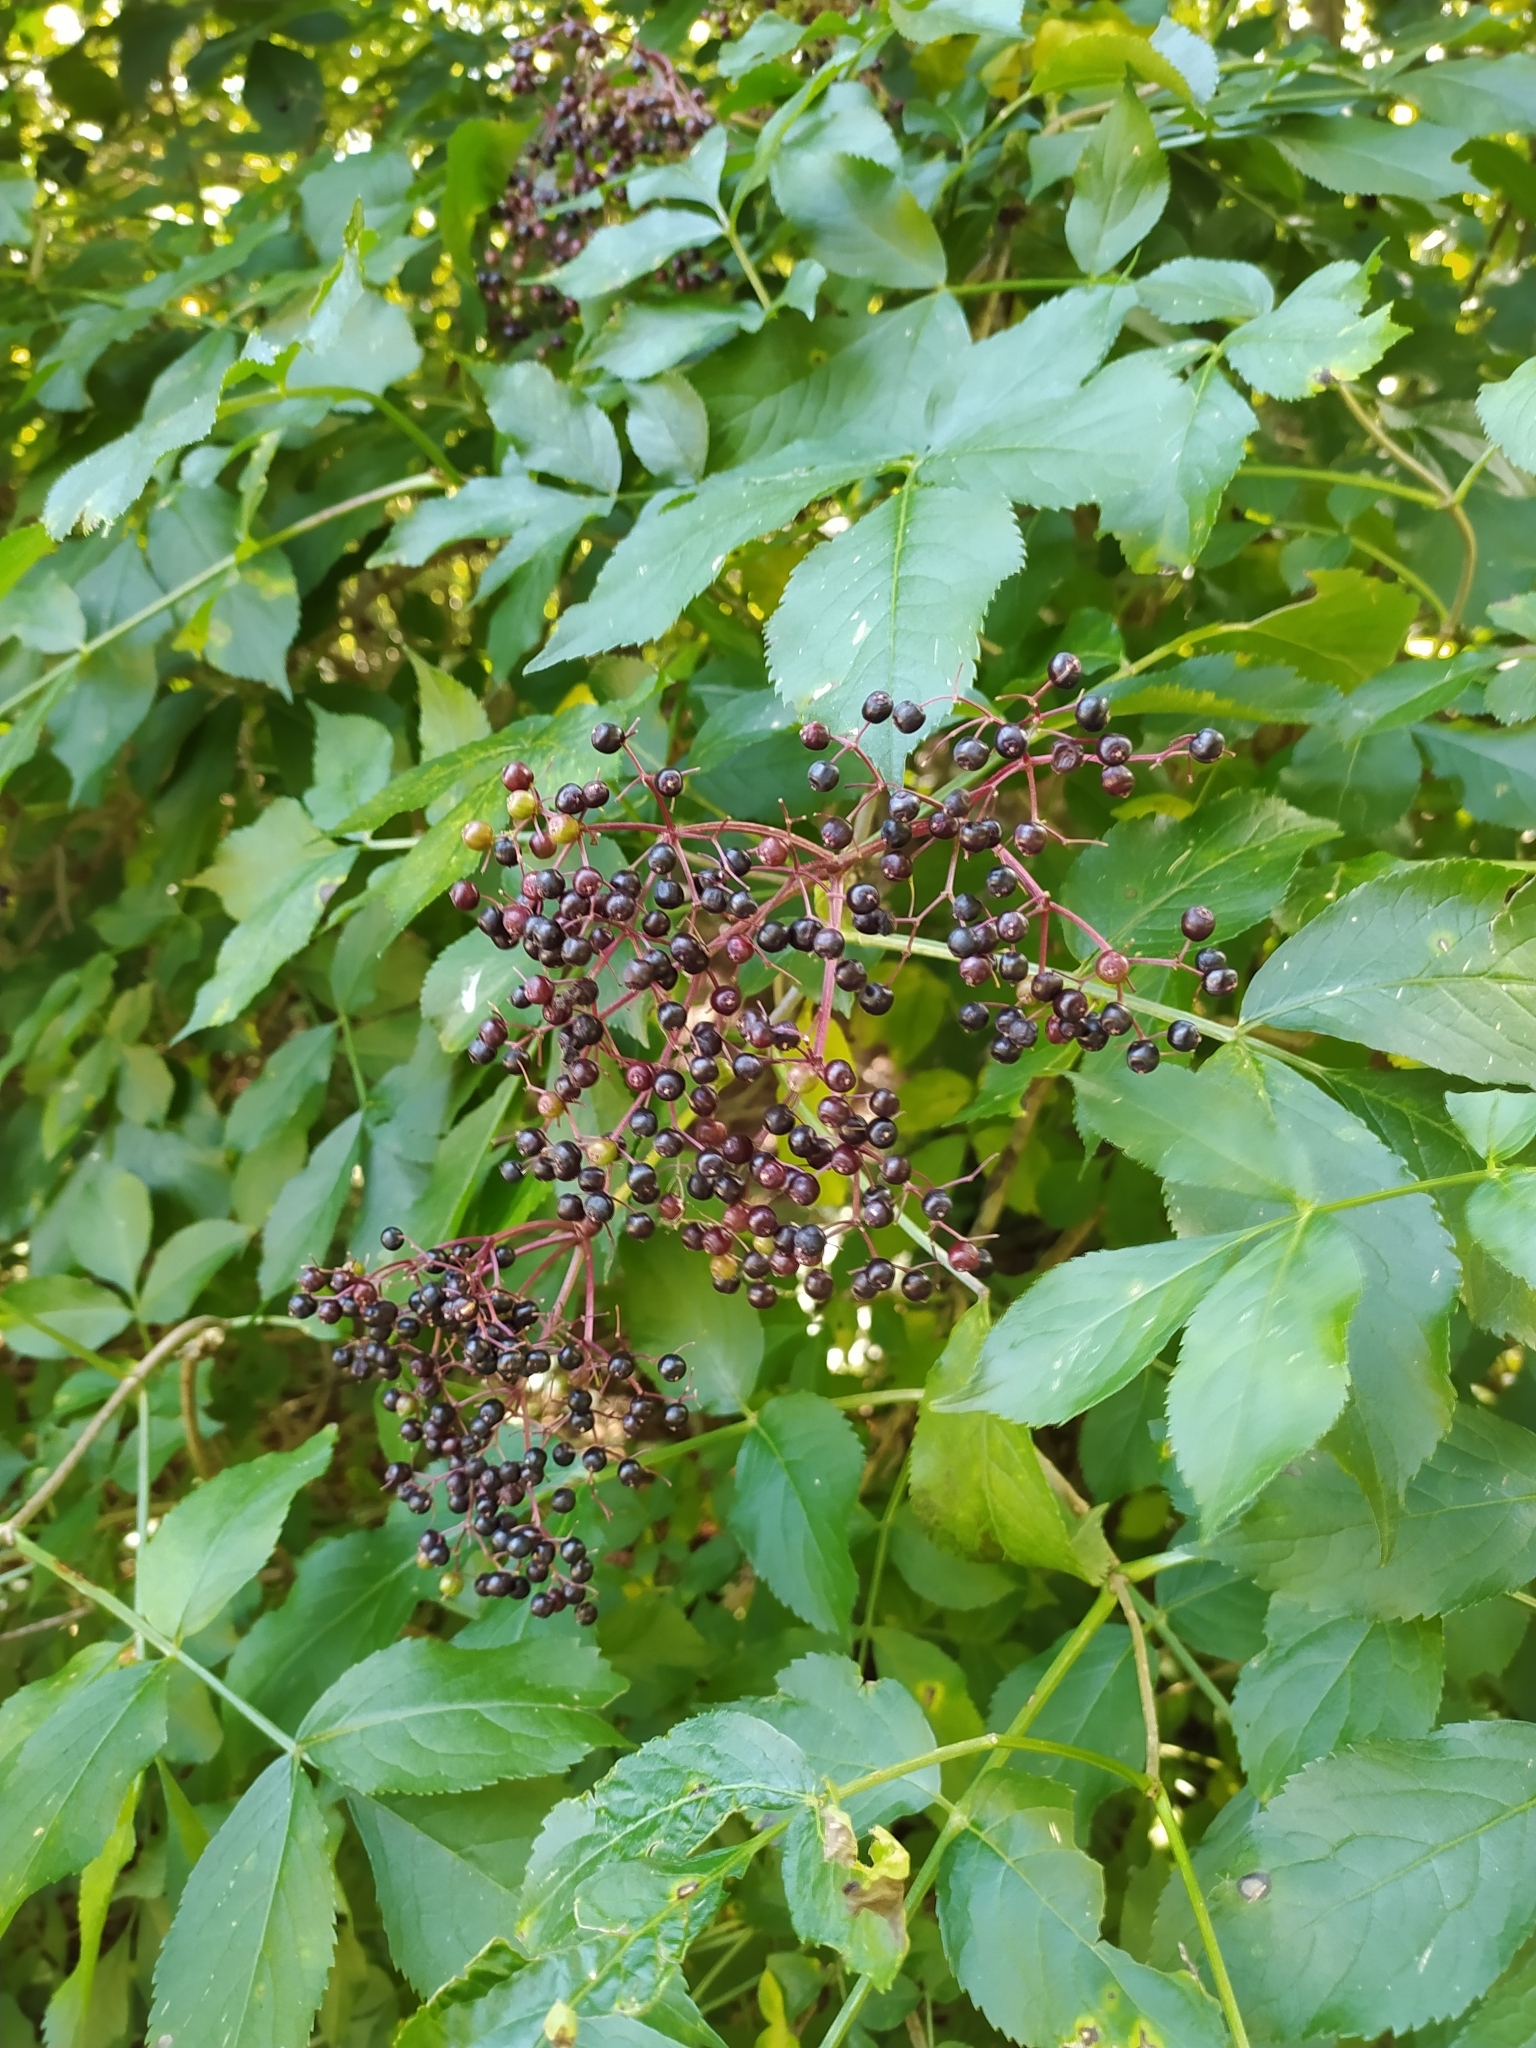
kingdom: Plantae
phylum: Tracheophyta
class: Magnoliopsida
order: Dipsacales
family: Viburnaceae
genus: Sambucus
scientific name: Sambucus nigra
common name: Elder
